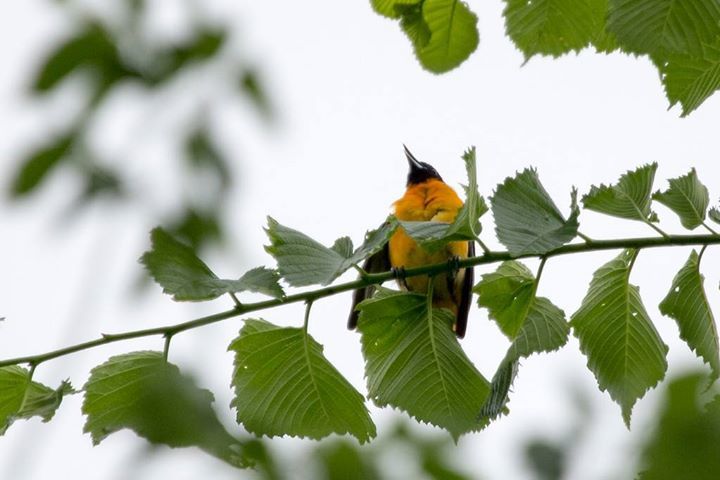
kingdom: Animalia
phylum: Chordata
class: Aves
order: Passeriformes
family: Icteridae
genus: Icterus
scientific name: Icterus galbula
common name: Baltimore oriole
